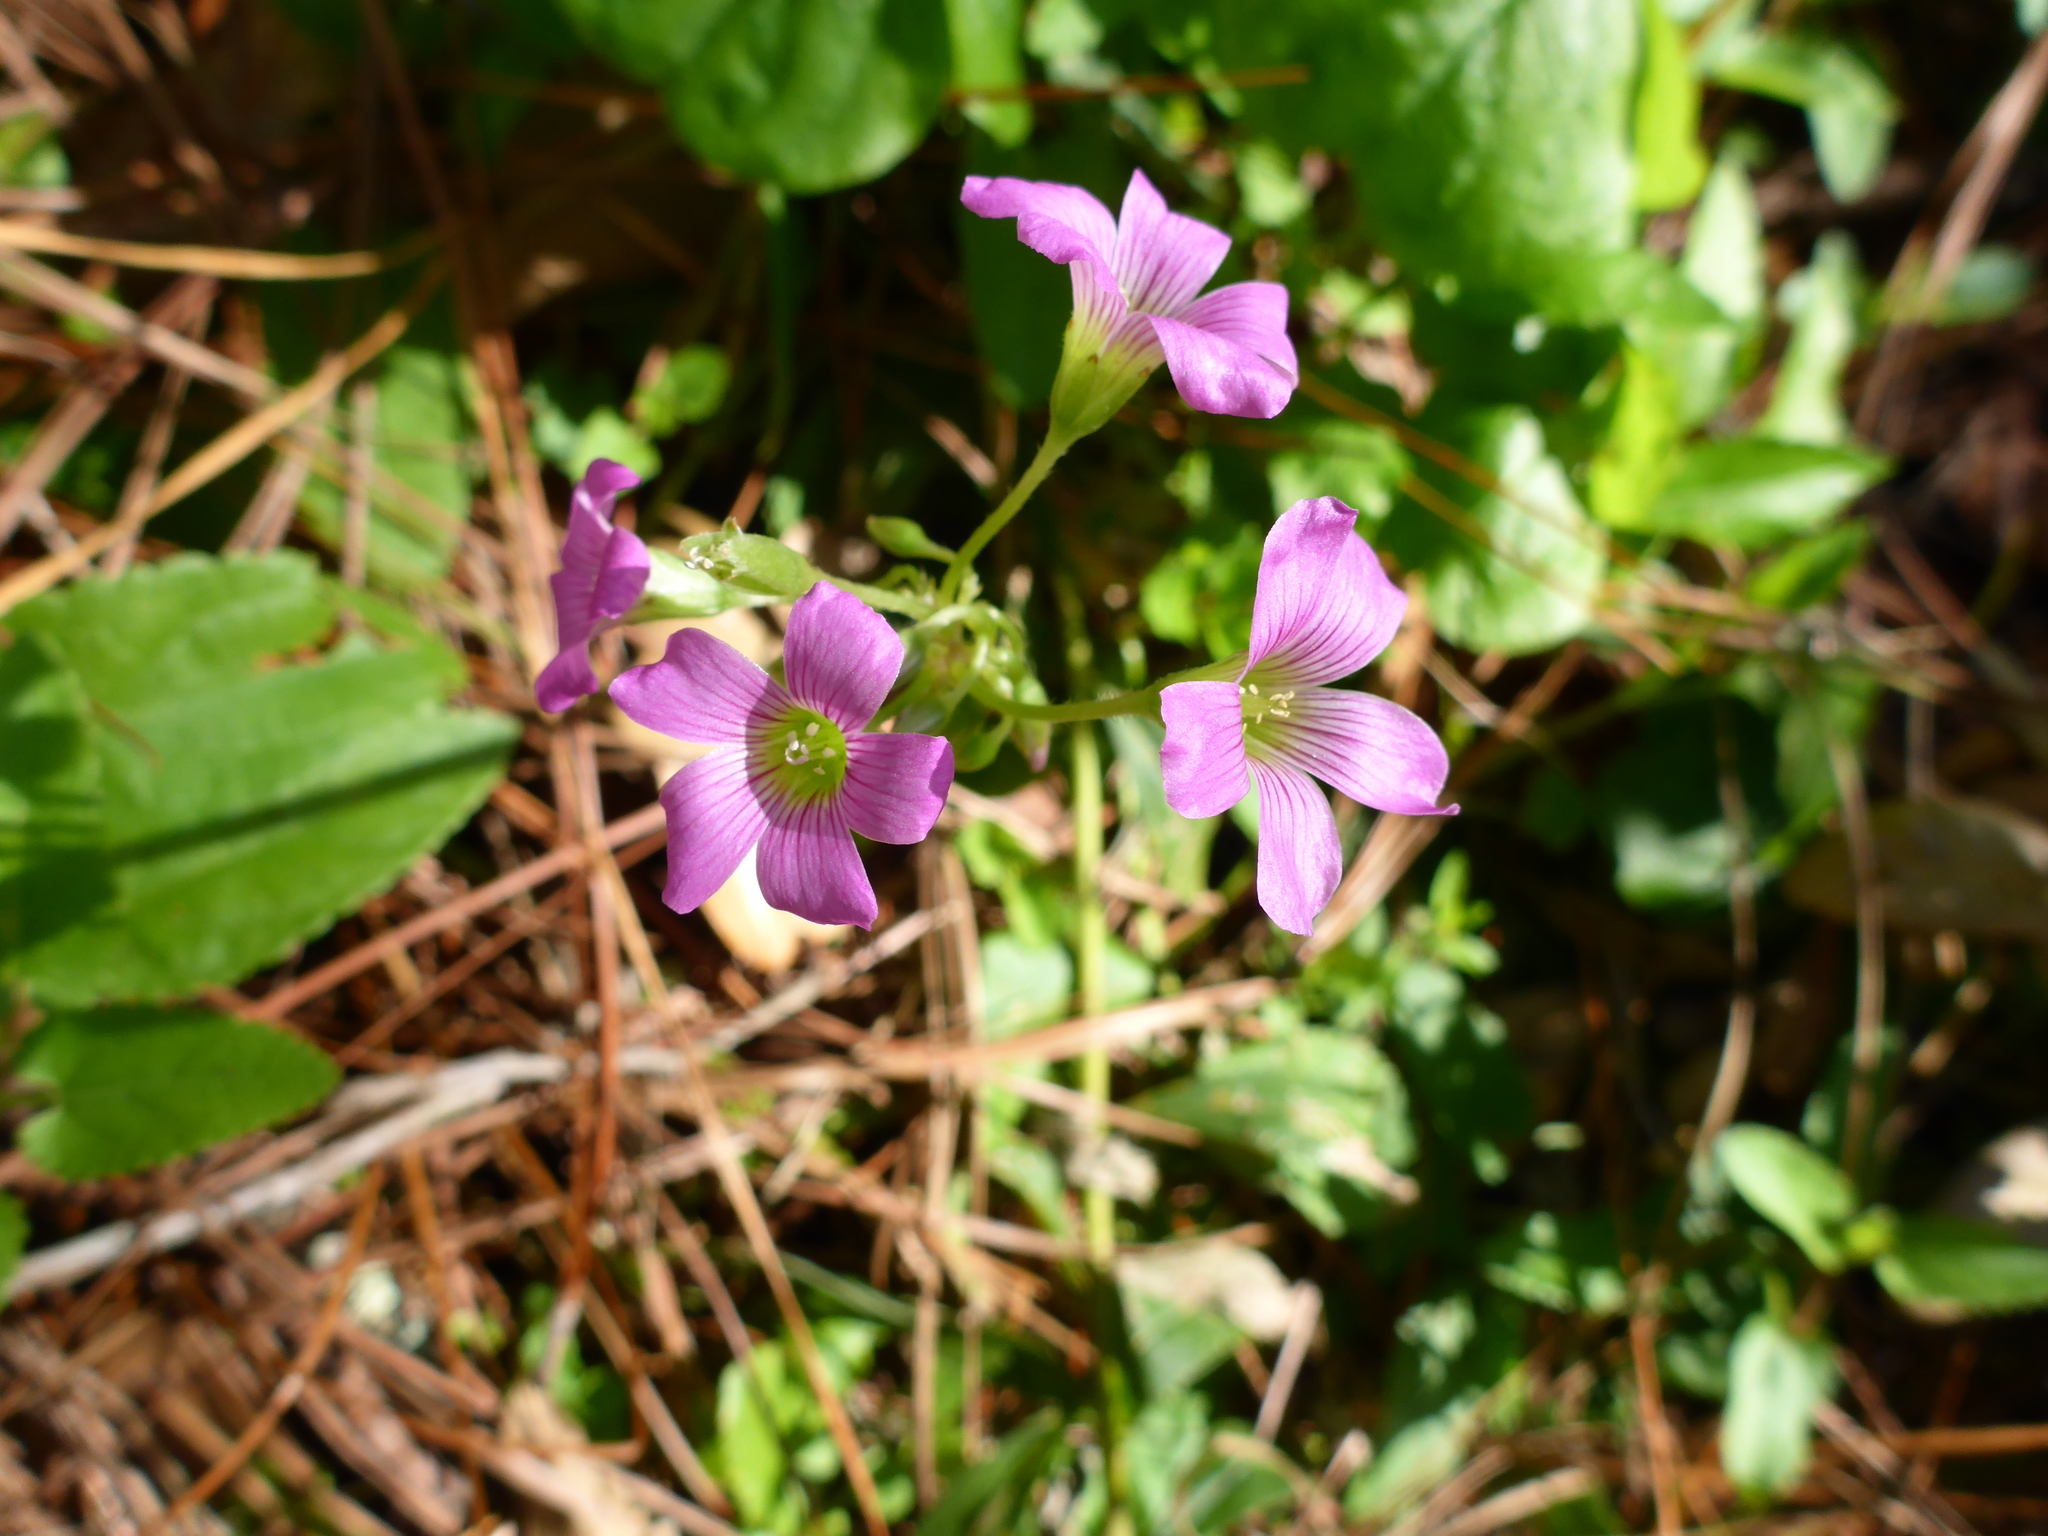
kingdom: Plantae
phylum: Tracheophyta
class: Magnoliopsida
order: Oxalidales
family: Oxalidaceae
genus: Oxalis
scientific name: Oxalis debilis
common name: Large-flowered pink-sorrel
